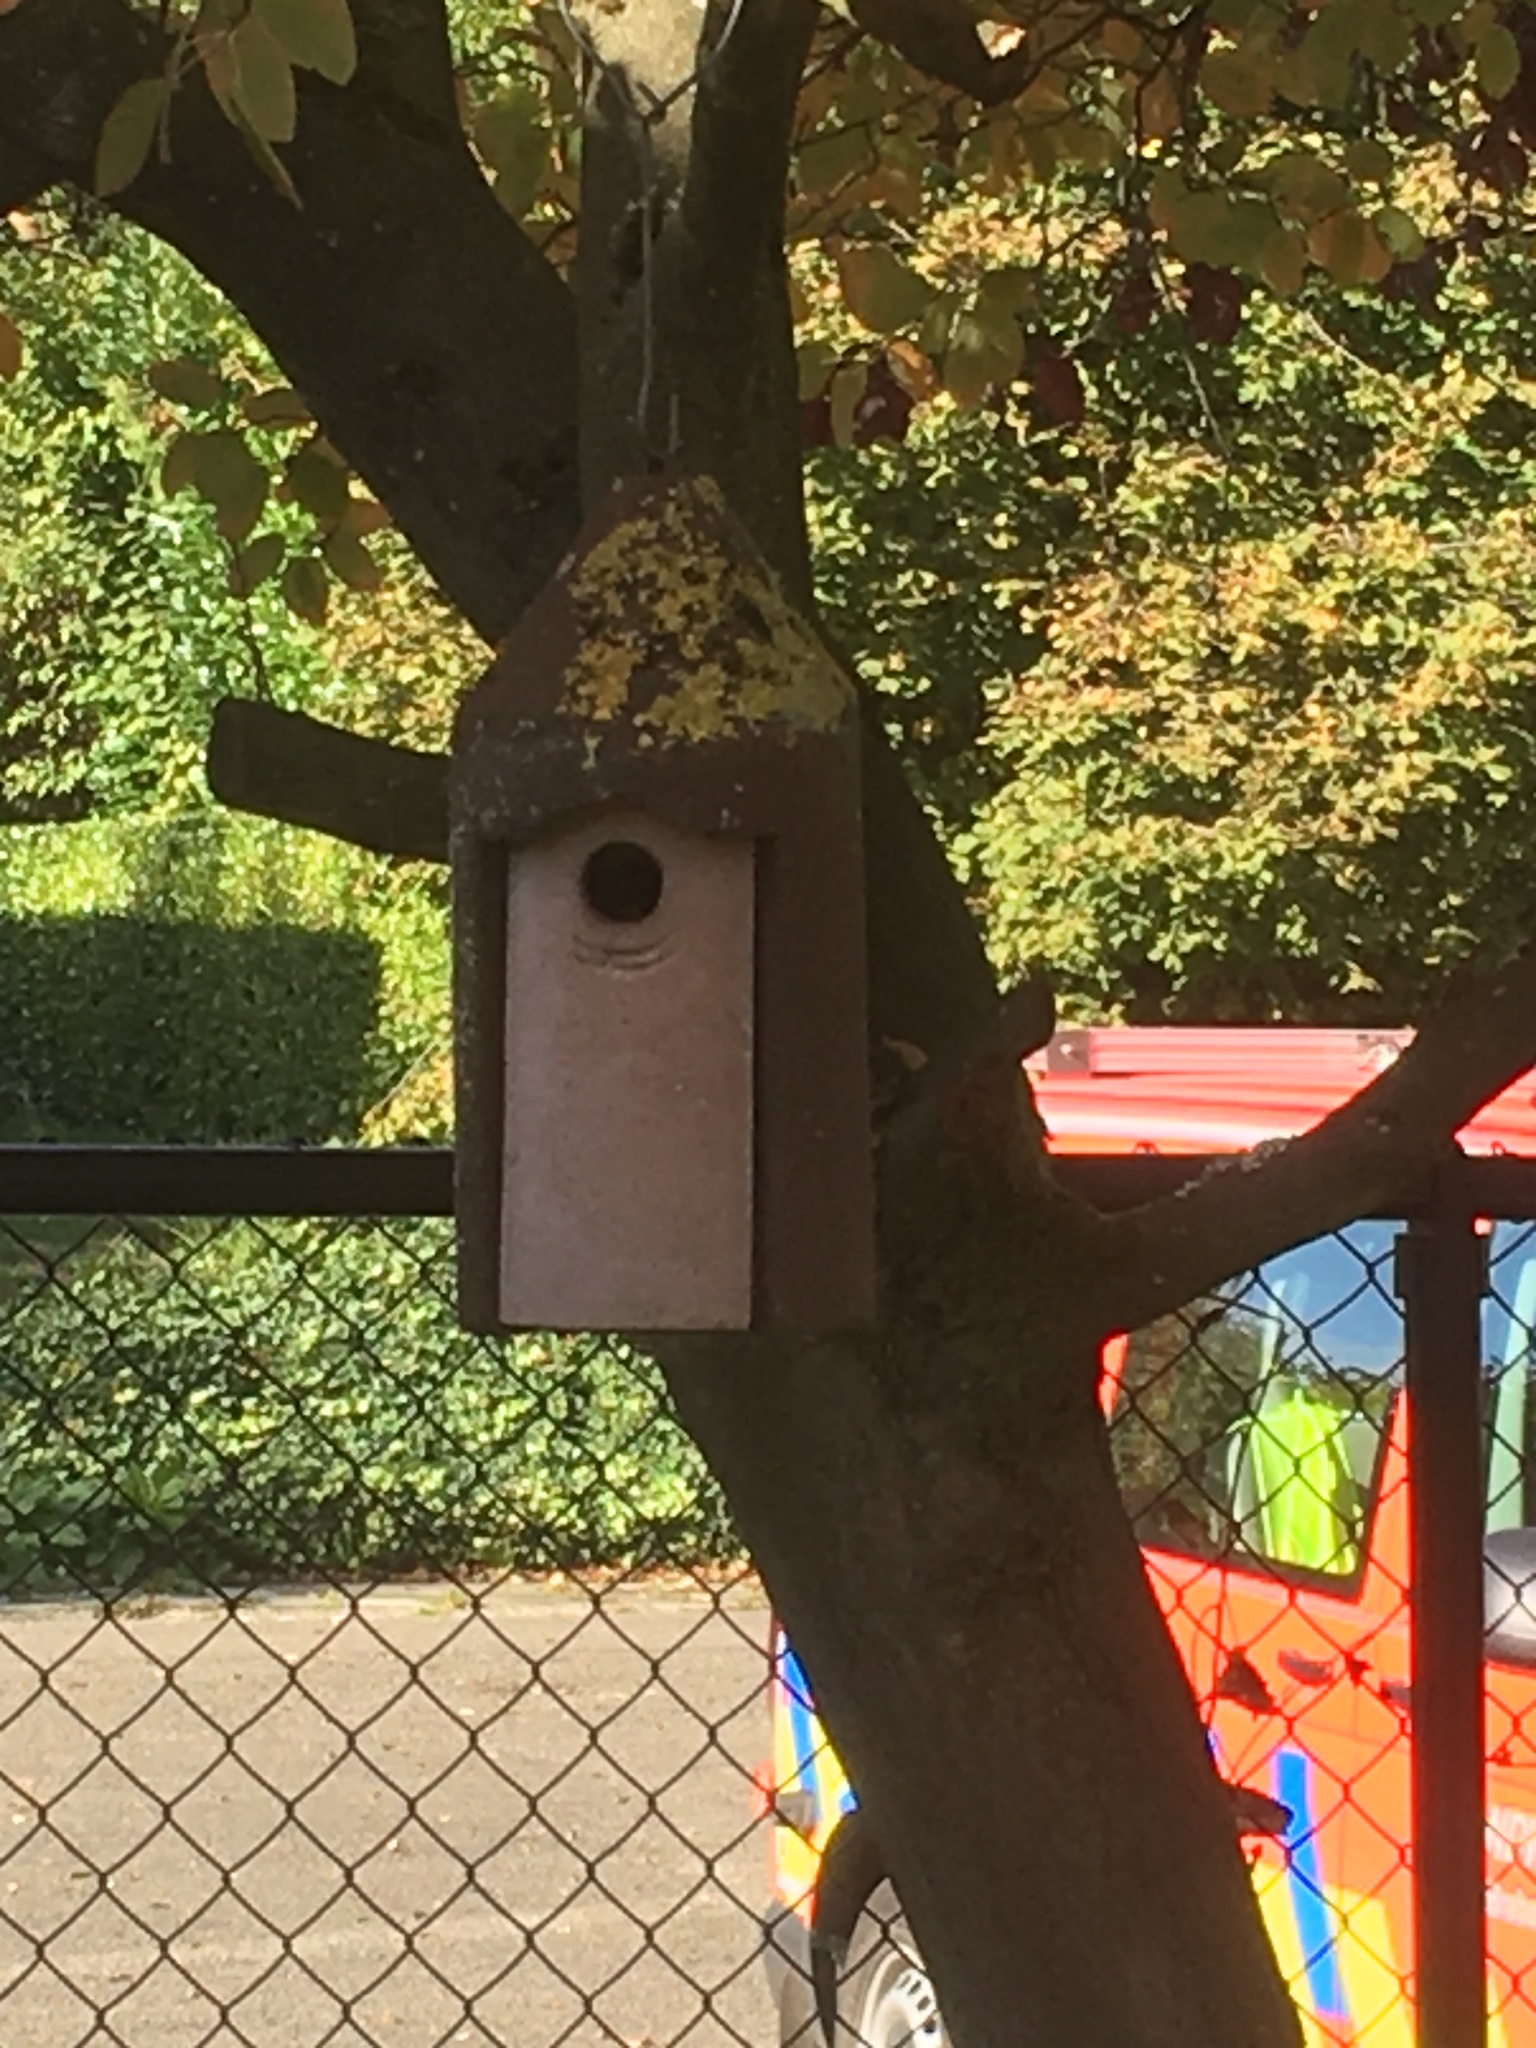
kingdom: Animalia
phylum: Arthropoda
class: Insecta
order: Hymenoptera
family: Vespidae
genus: Vespa
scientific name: Vespa velutina
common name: Asian hornet
